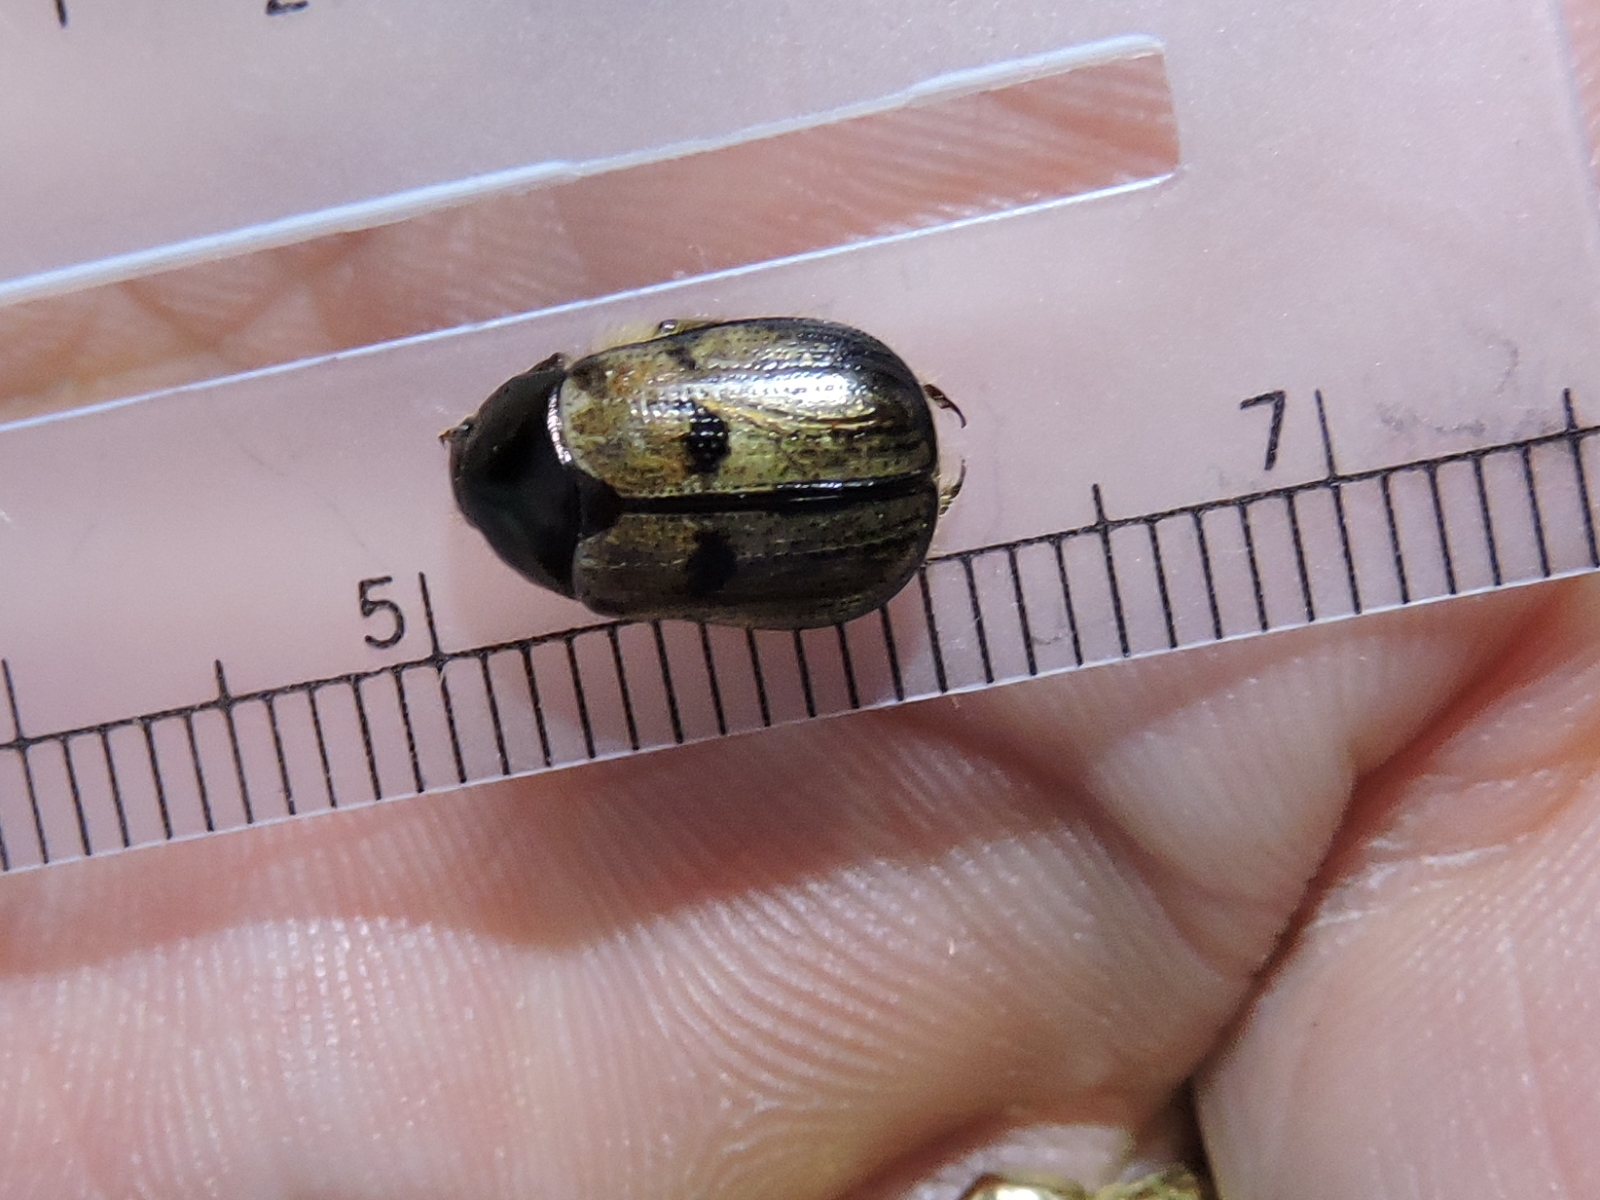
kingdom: Animalia
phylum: Arthropoda
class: Insecta
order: Coleoptera
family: Scarabaeidae
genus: Paranomala
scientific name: Paranomala binotata
